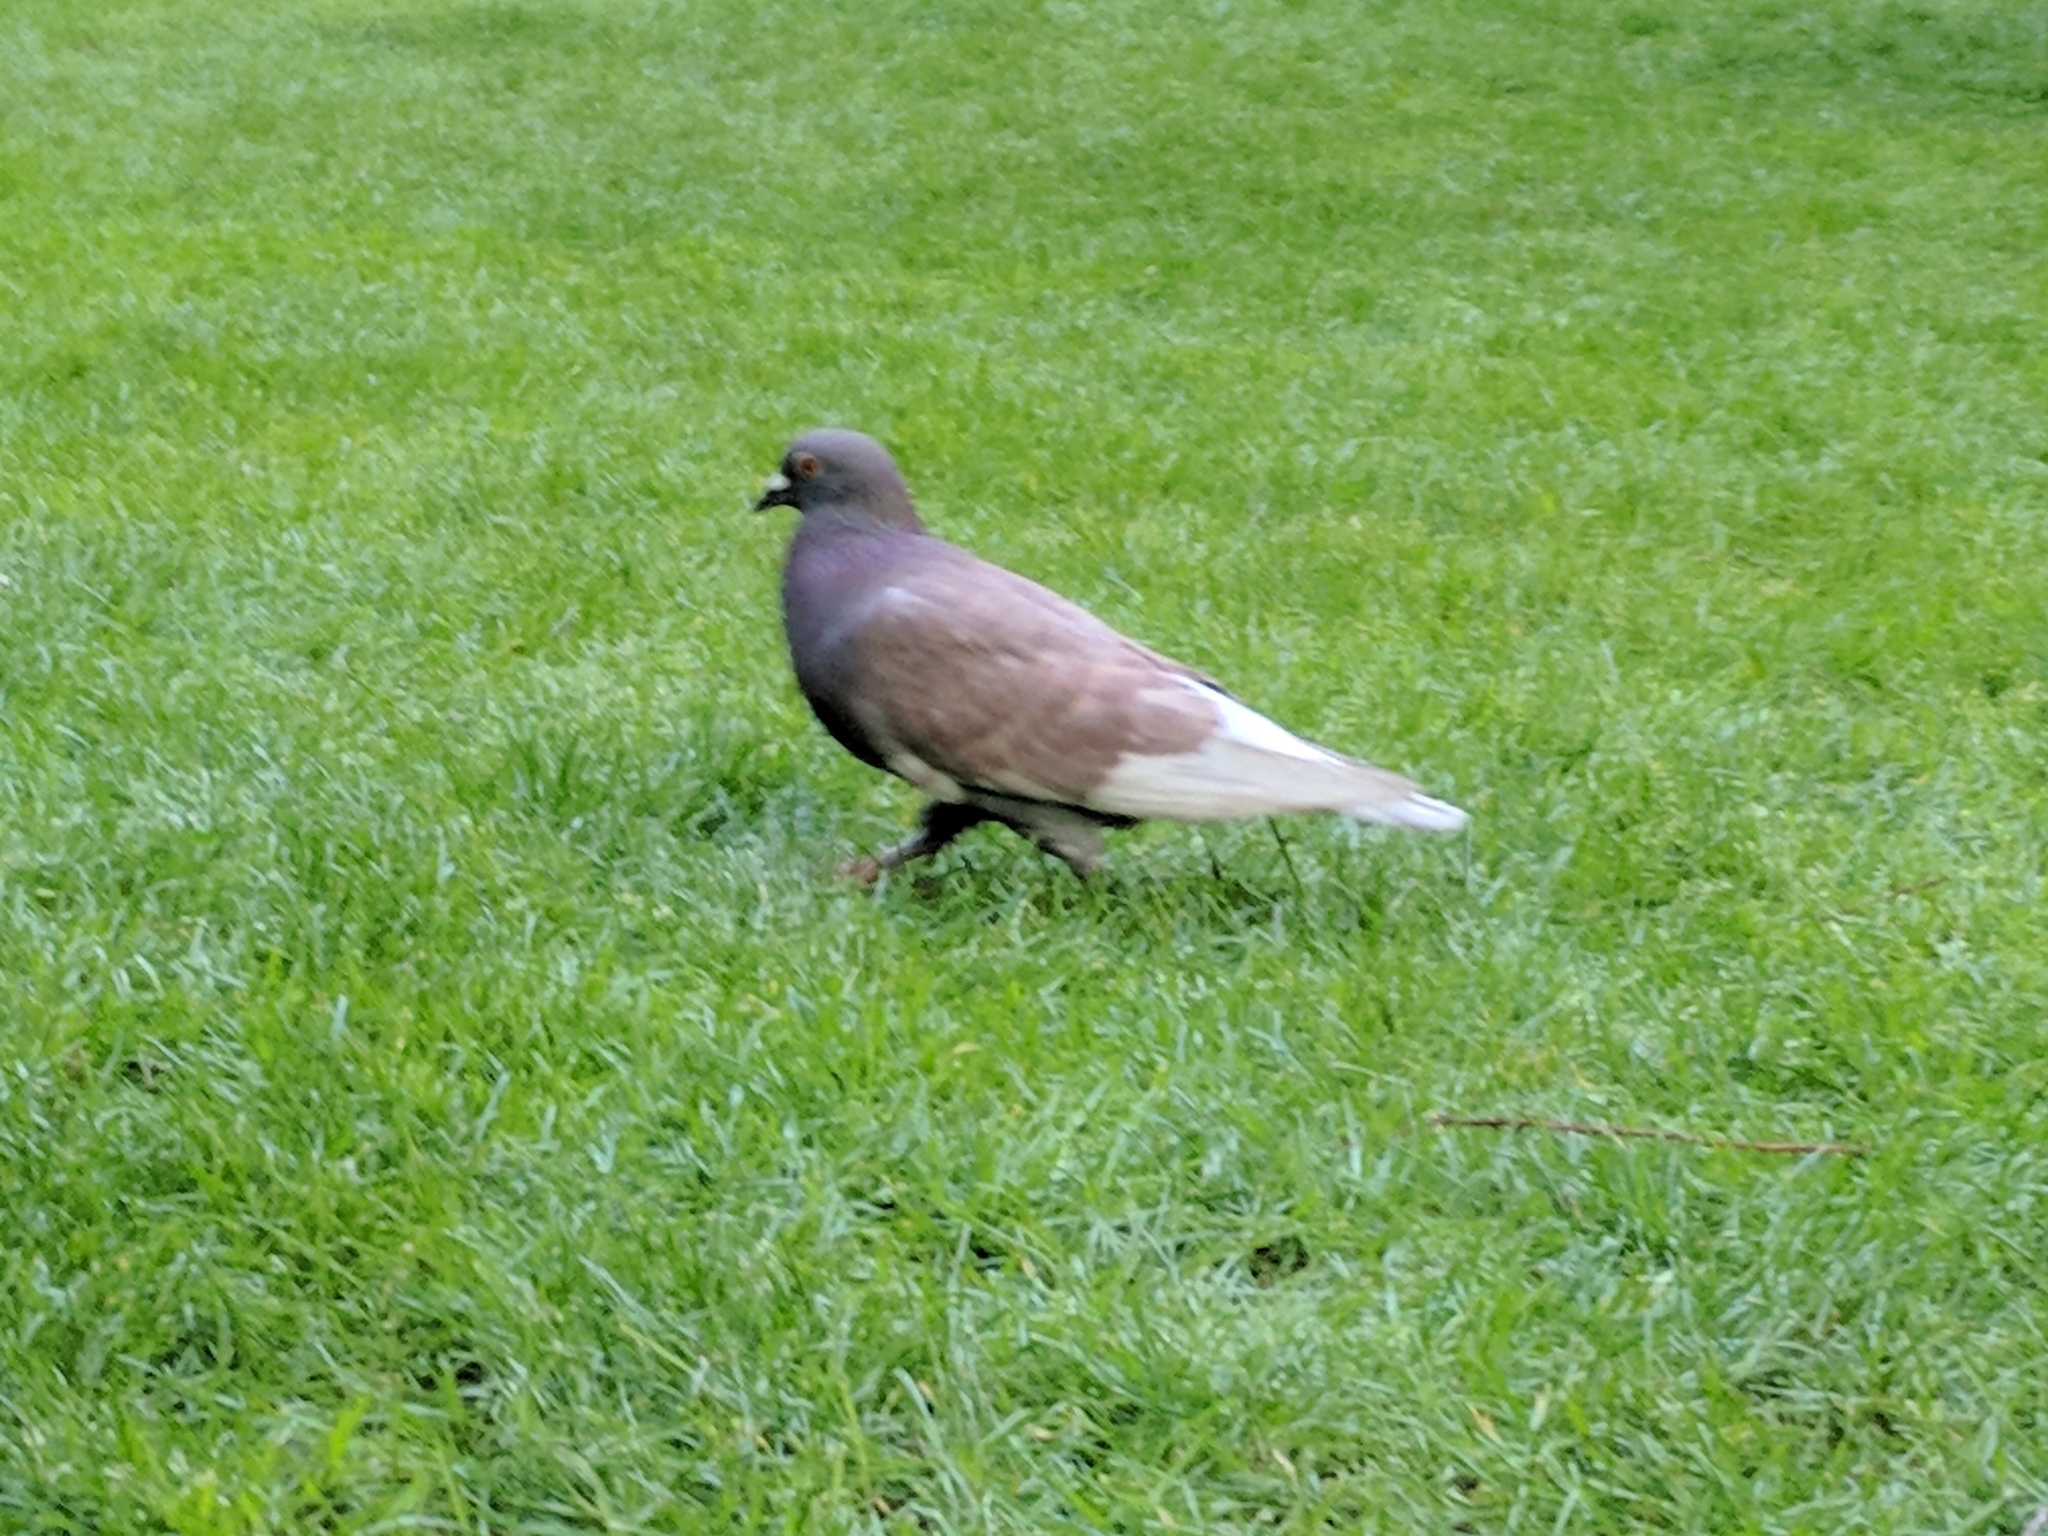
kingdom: Animalia
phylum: Chordata
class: Aves
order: Columbiformes
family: Columbidae
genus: Columba
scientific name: Columba livia
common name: Rock pigeon
